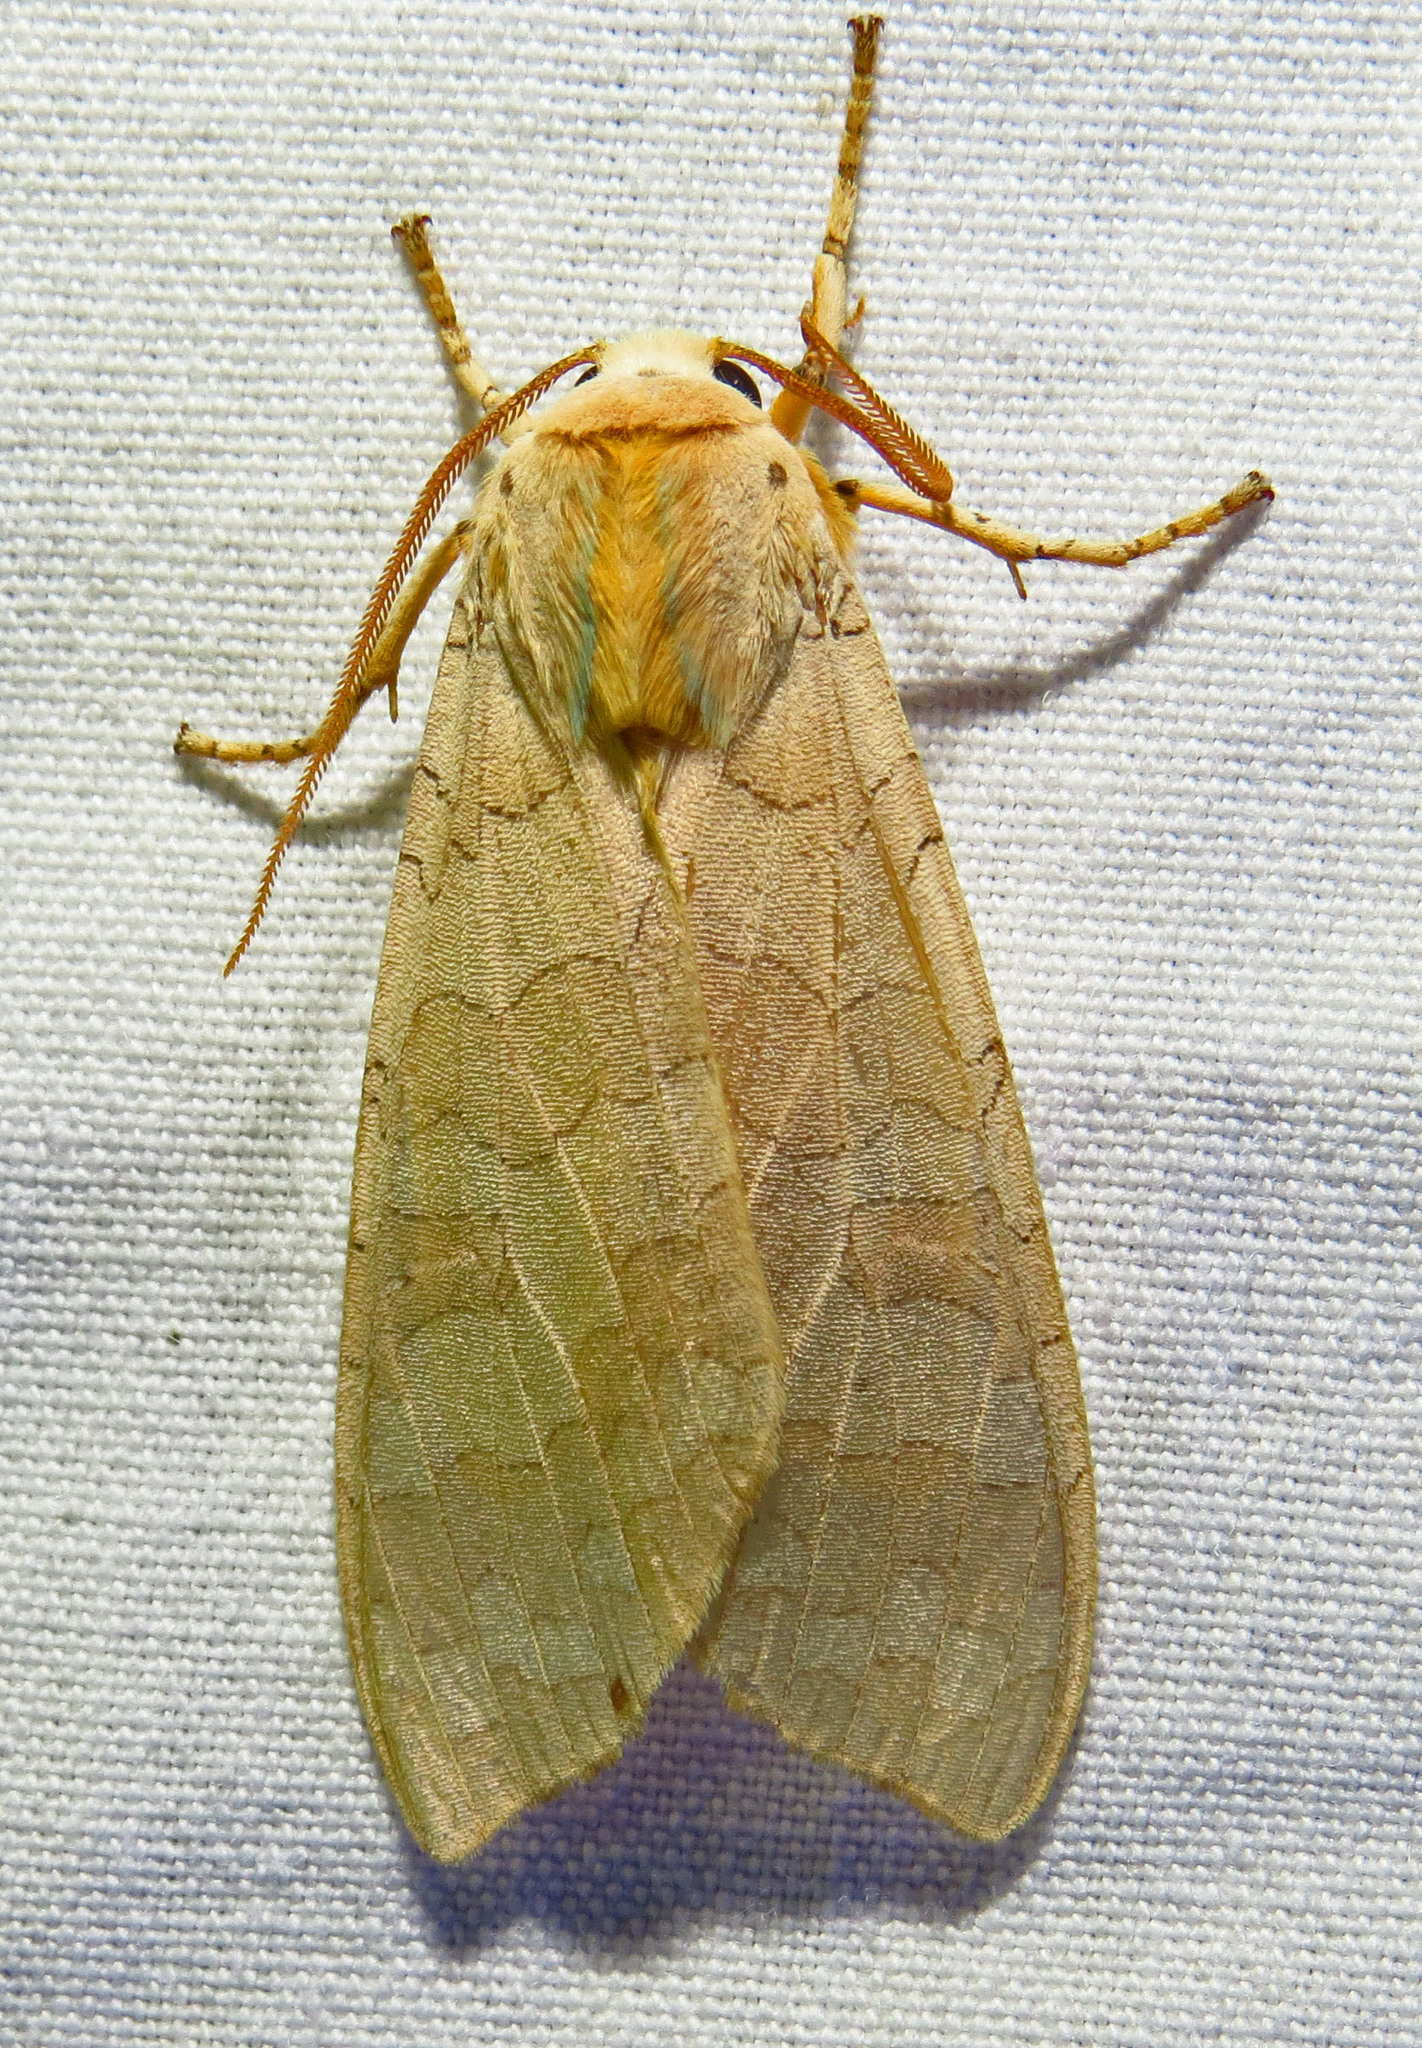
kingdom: Animalia
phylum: Arthropoda
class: Insecta
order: Lepidoptera
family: Erebidae
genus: Halysidota
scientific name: Halysidota
